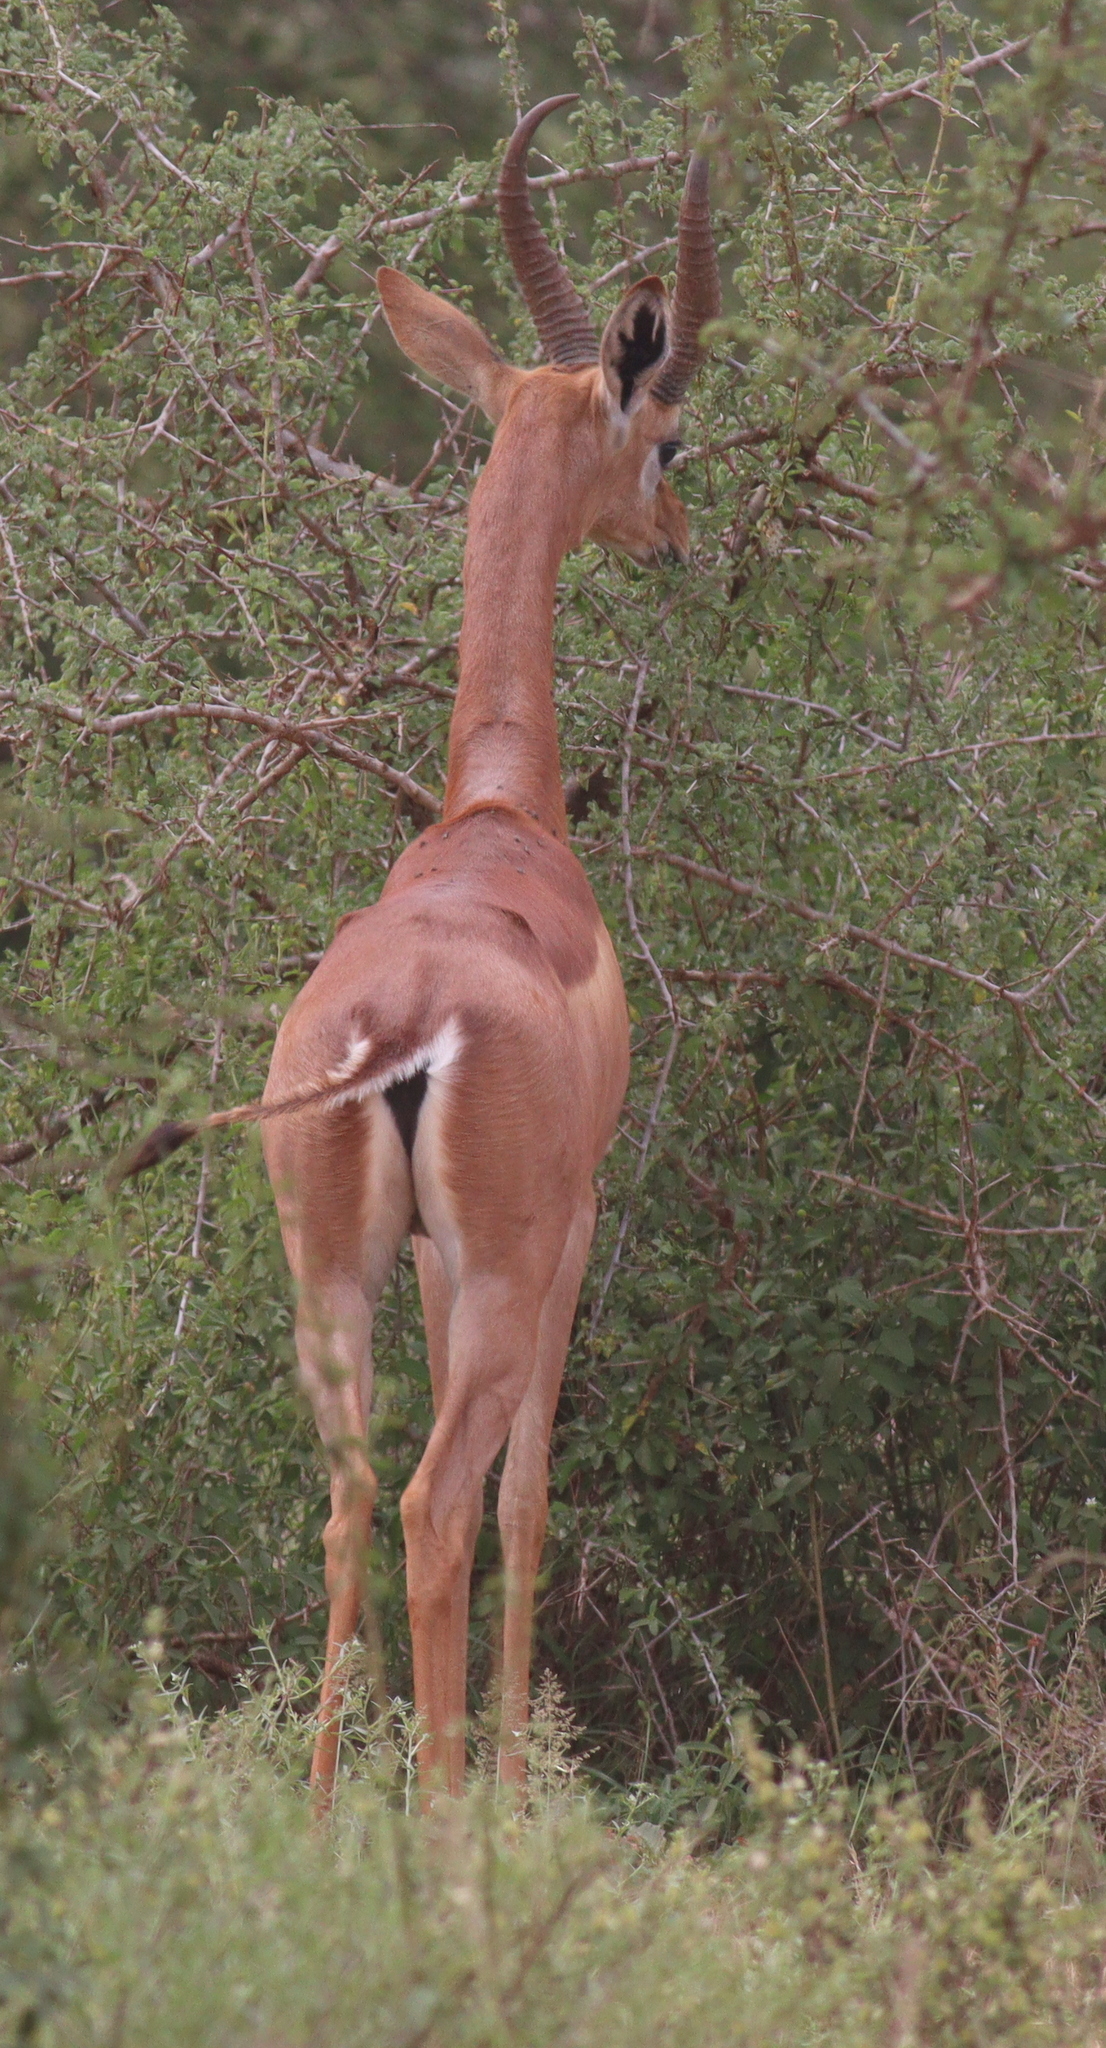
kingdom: Animalia
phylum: Chordata
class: Mammalia
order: Artiodactyla
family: Bovidae
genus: Litocranius
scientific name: Litocranius walleri
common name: Gerenuk
